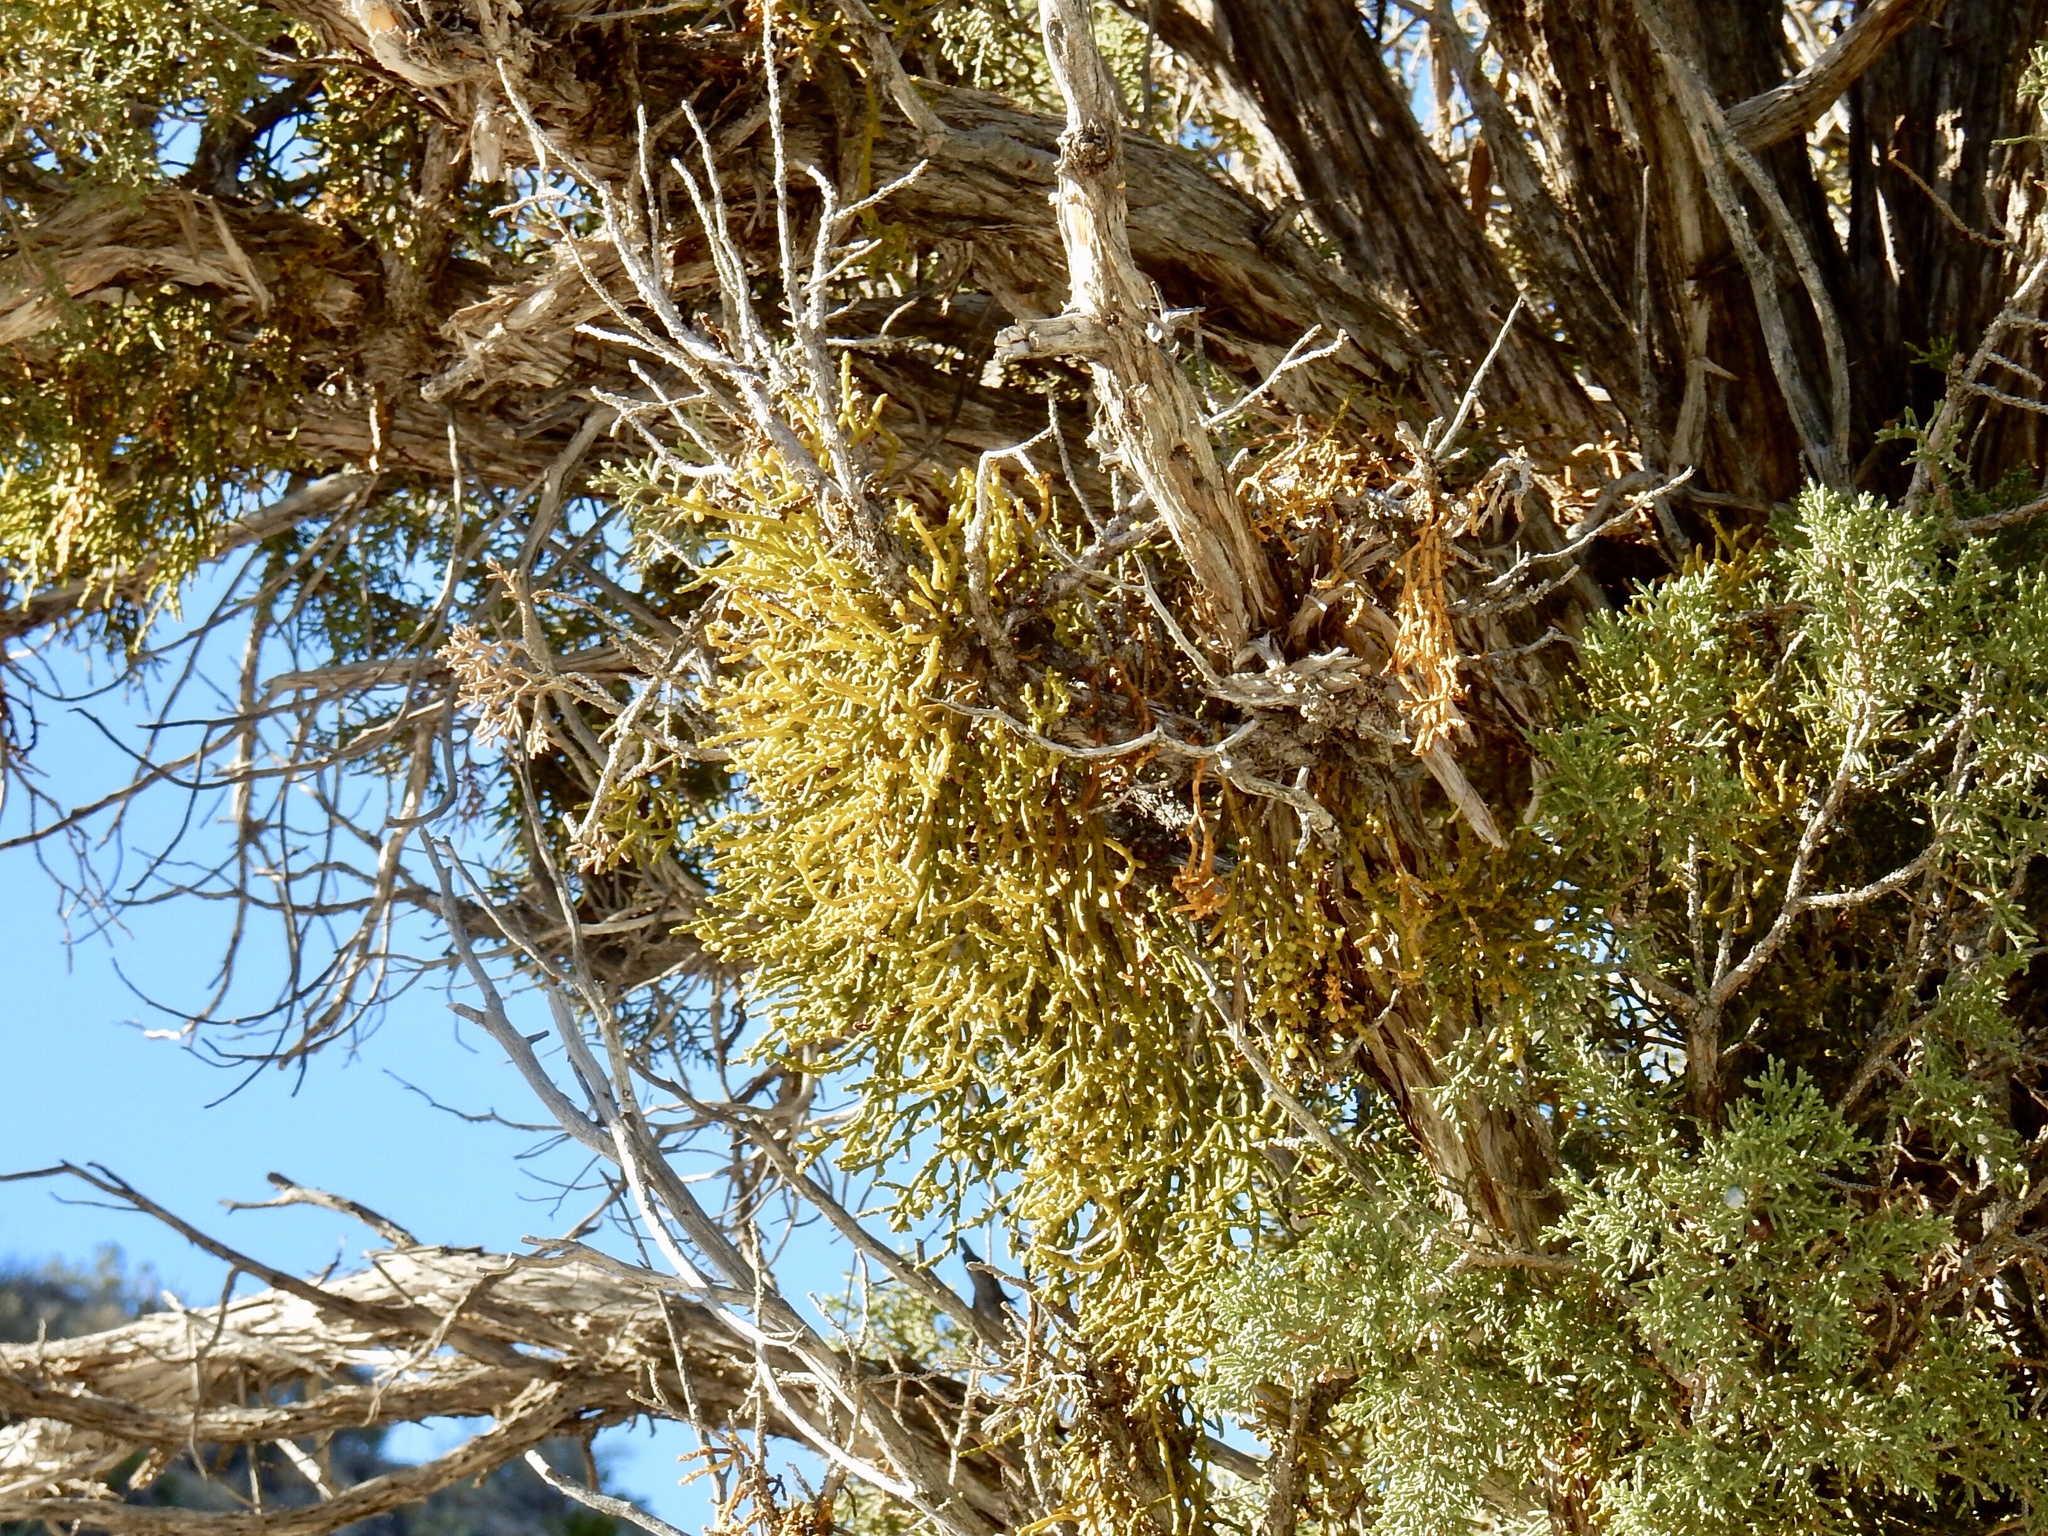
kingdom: Plantae
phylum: Tracheophyta
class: Magnoliopsida
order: Santalales
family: Viscaceae
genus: Phoradendron
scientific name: Phoradendron juniperinum
